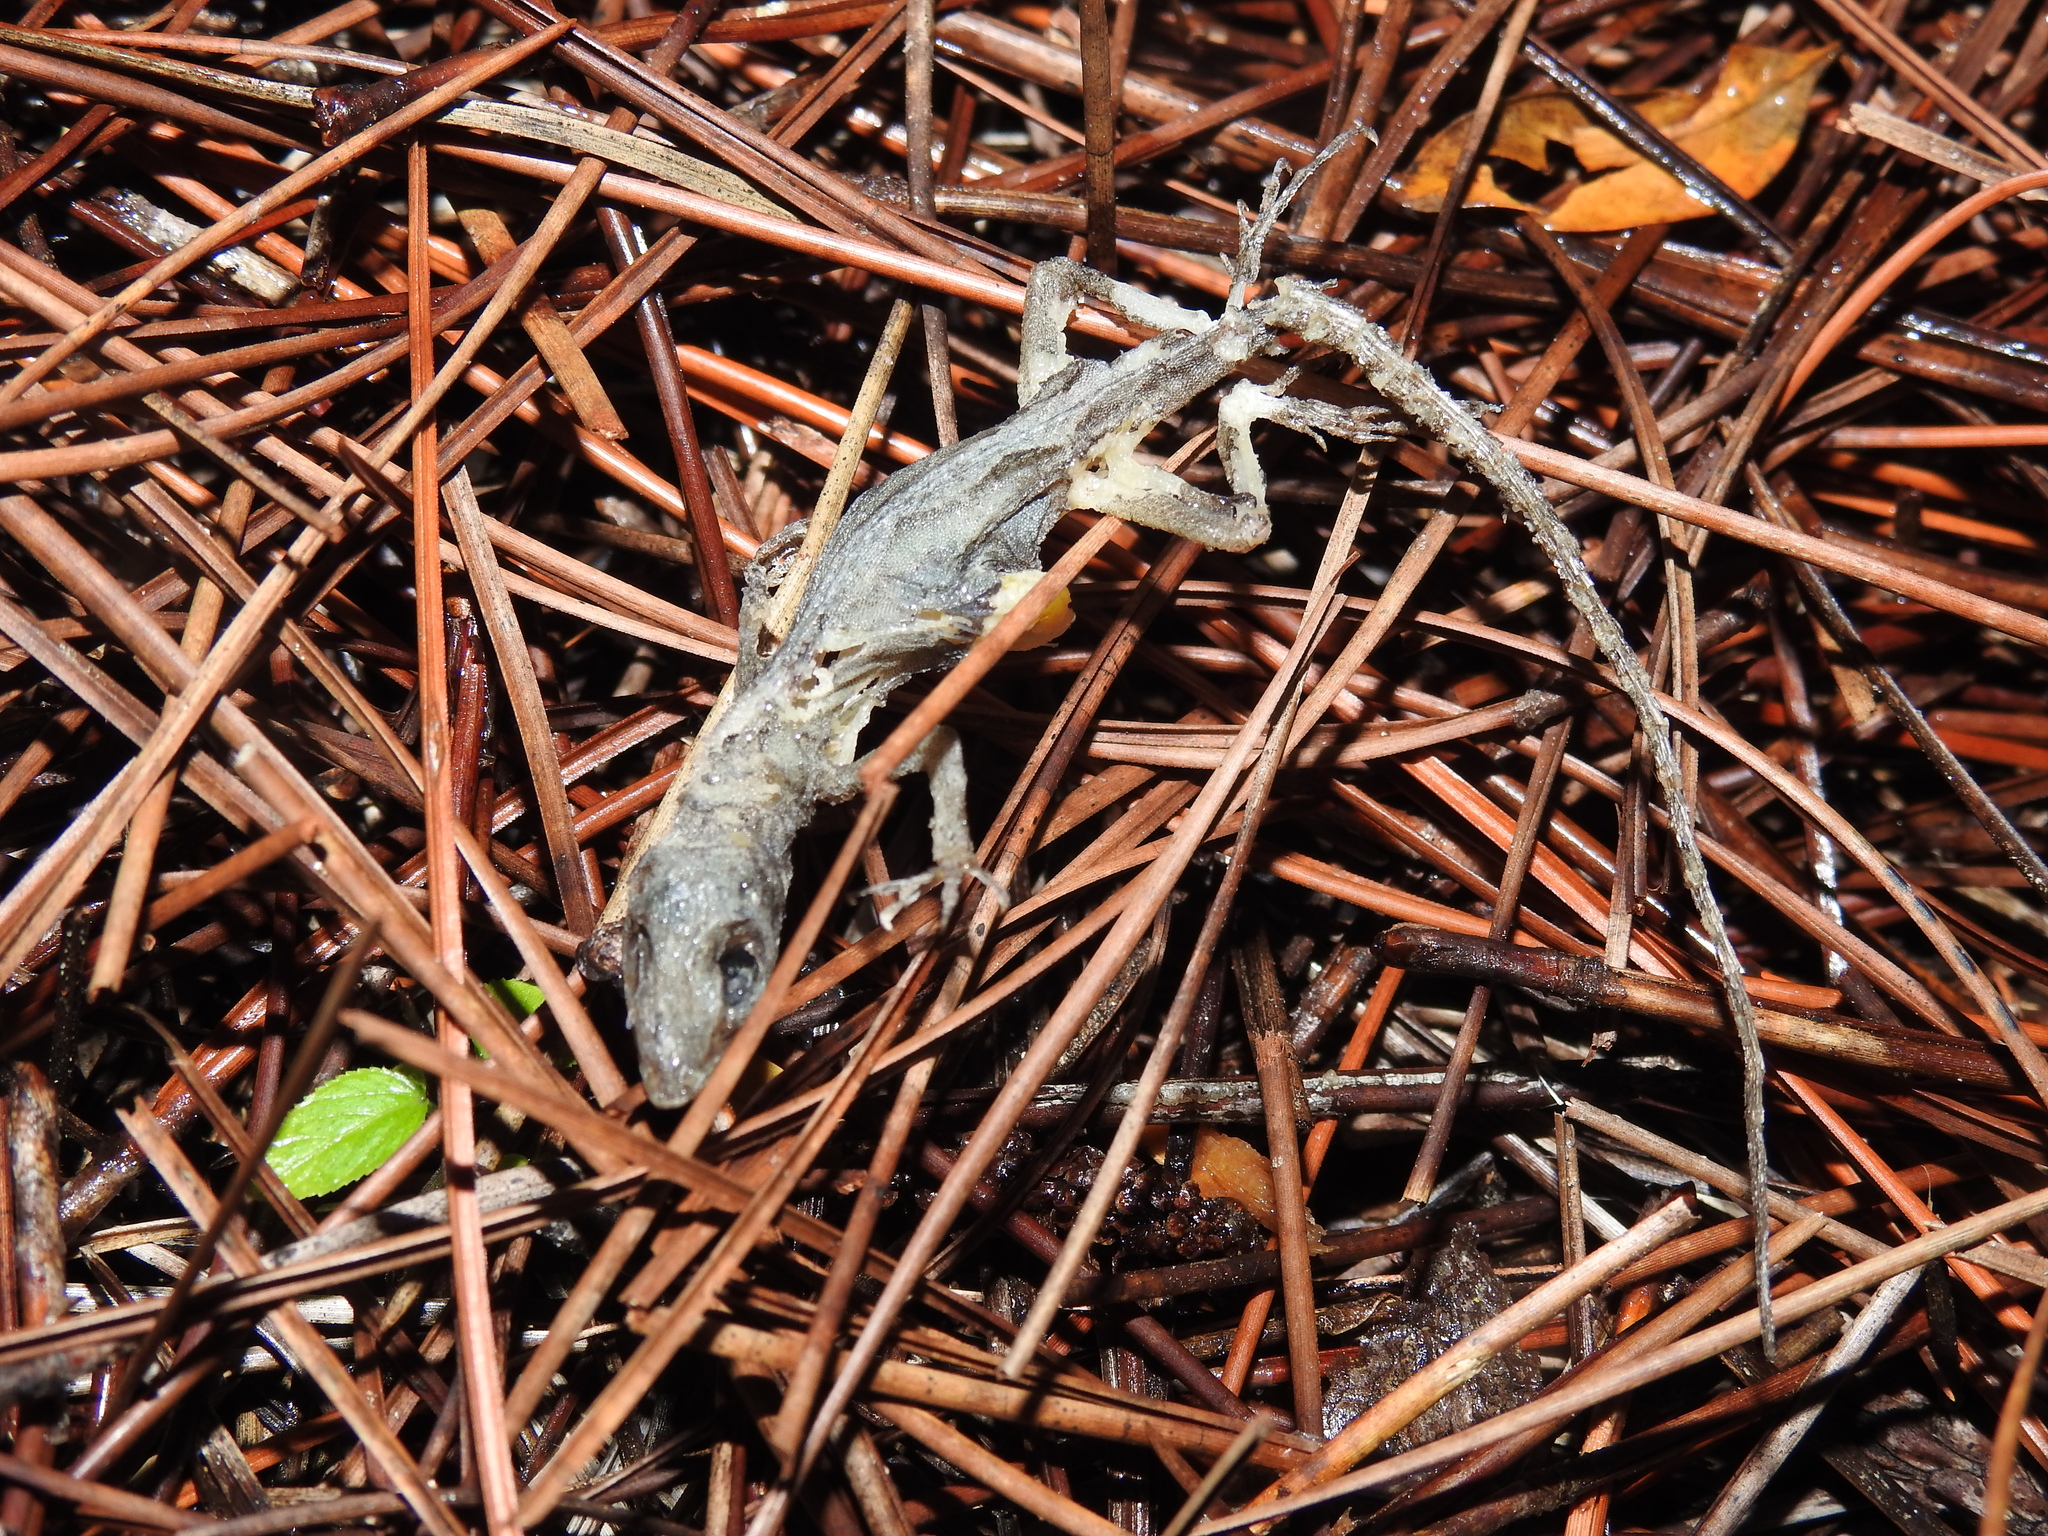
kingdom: Animalia
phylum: Chordata
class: Squamata
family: Dactyloidae
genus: Anolis
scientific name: Anolis sagrei
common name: Brown anole
